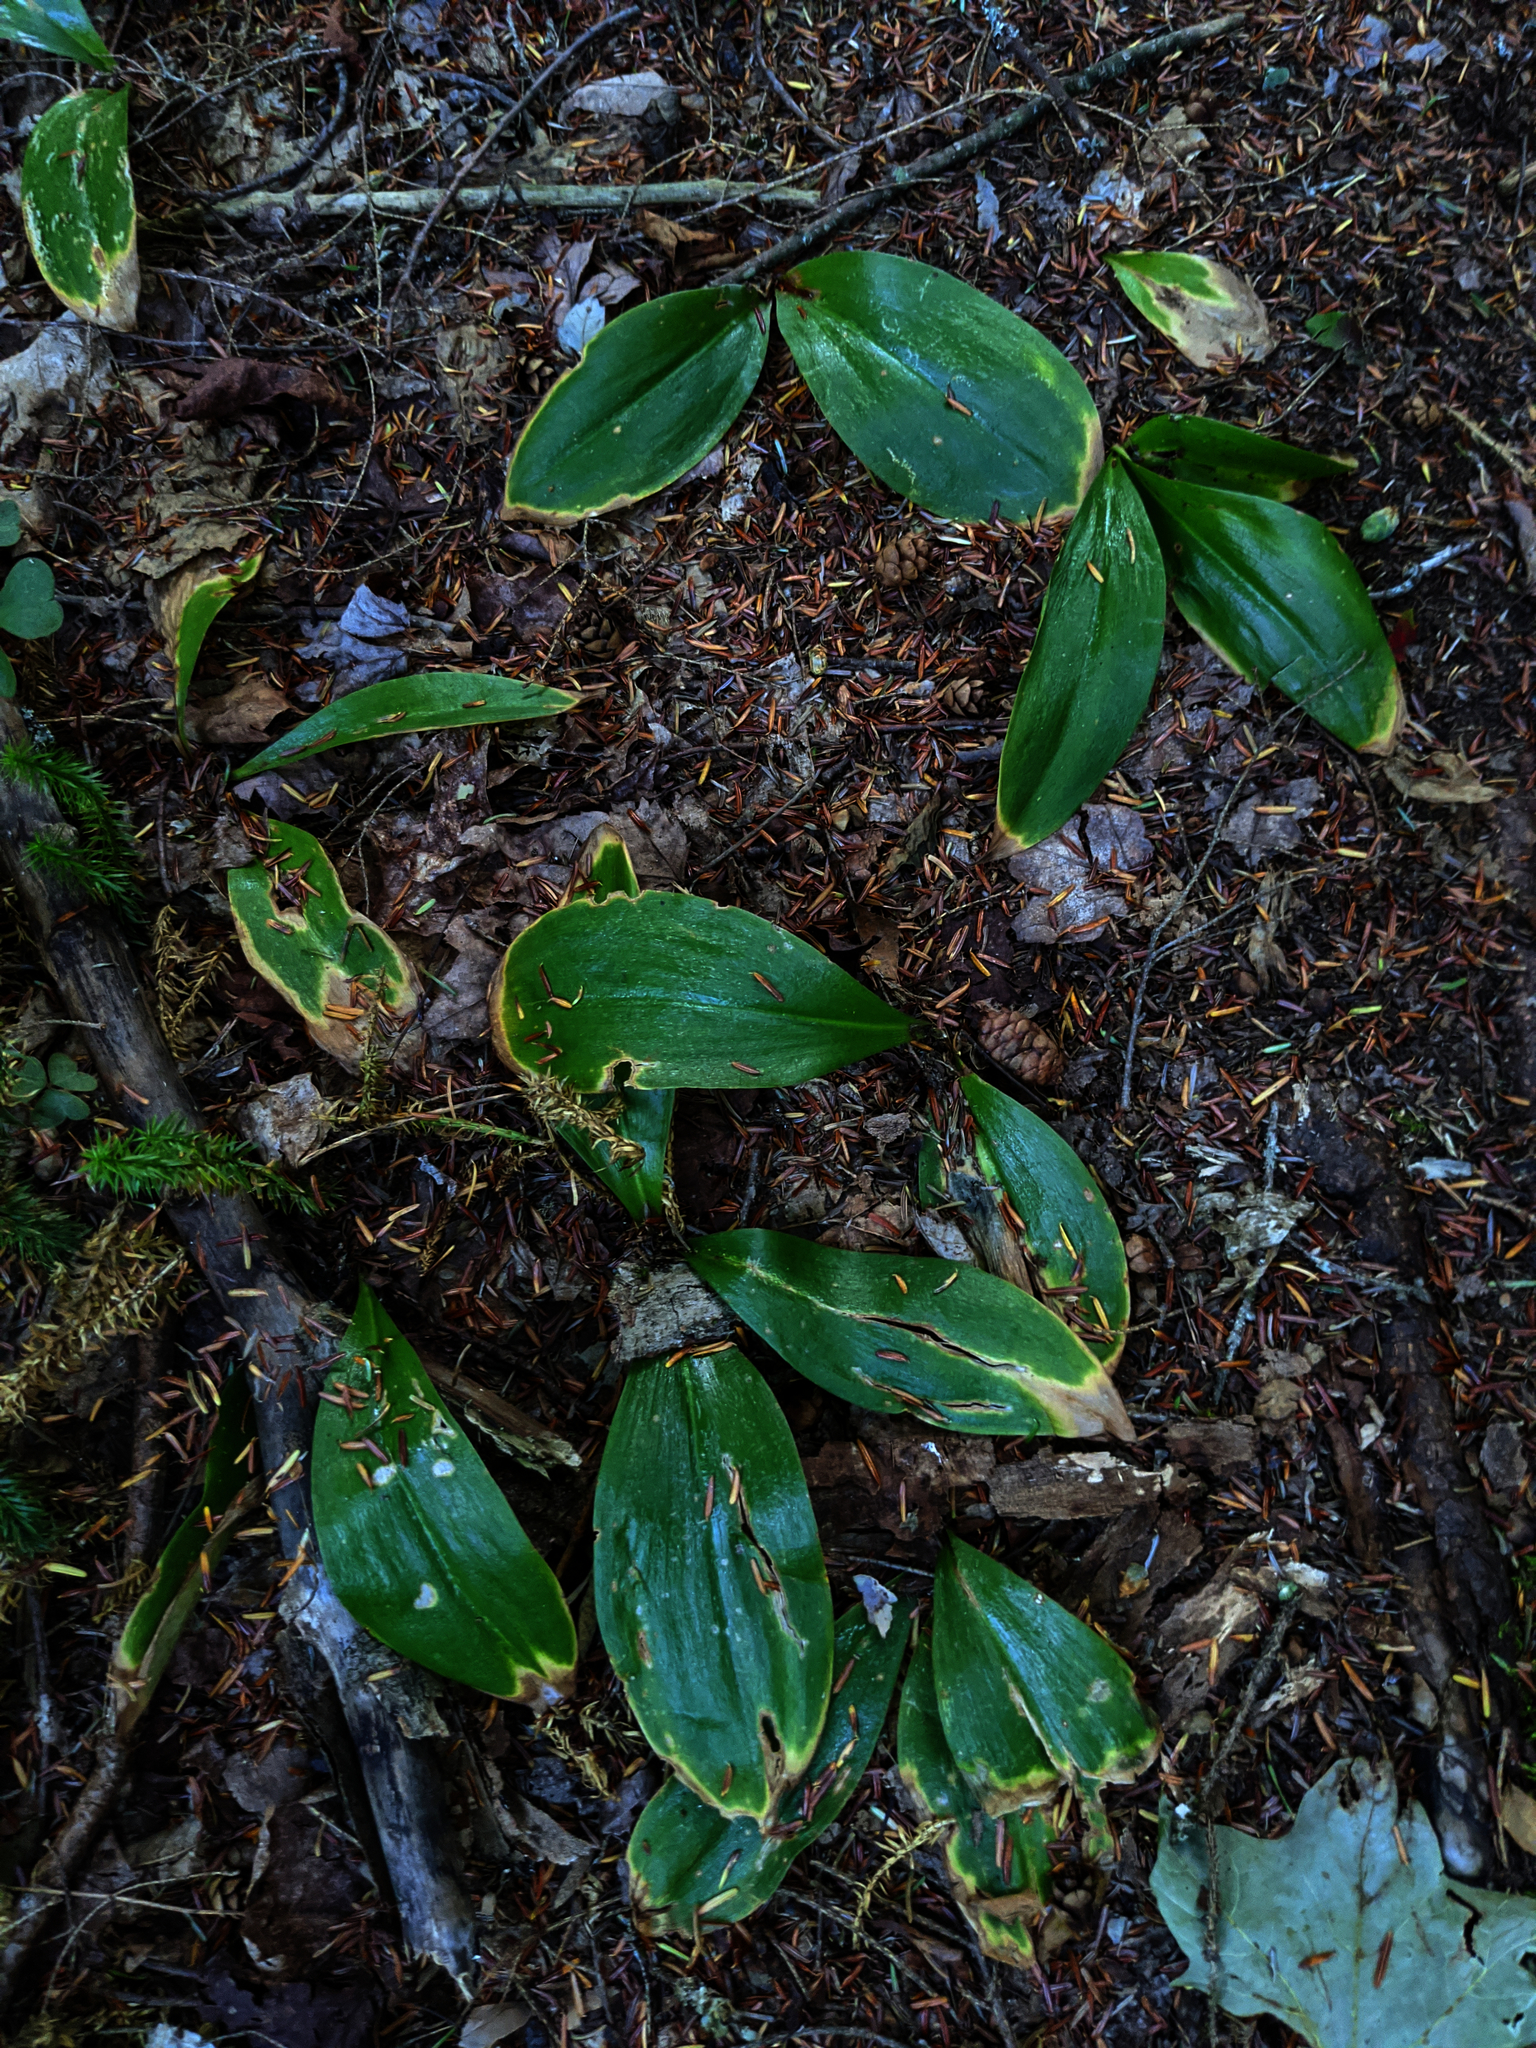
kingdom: Plantae
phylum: Tracheophyta
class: Liliopsida
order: Liliales
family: Liliaceae
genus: Clintonia
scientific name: Clintonia borealis
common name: Yellow clintonia
